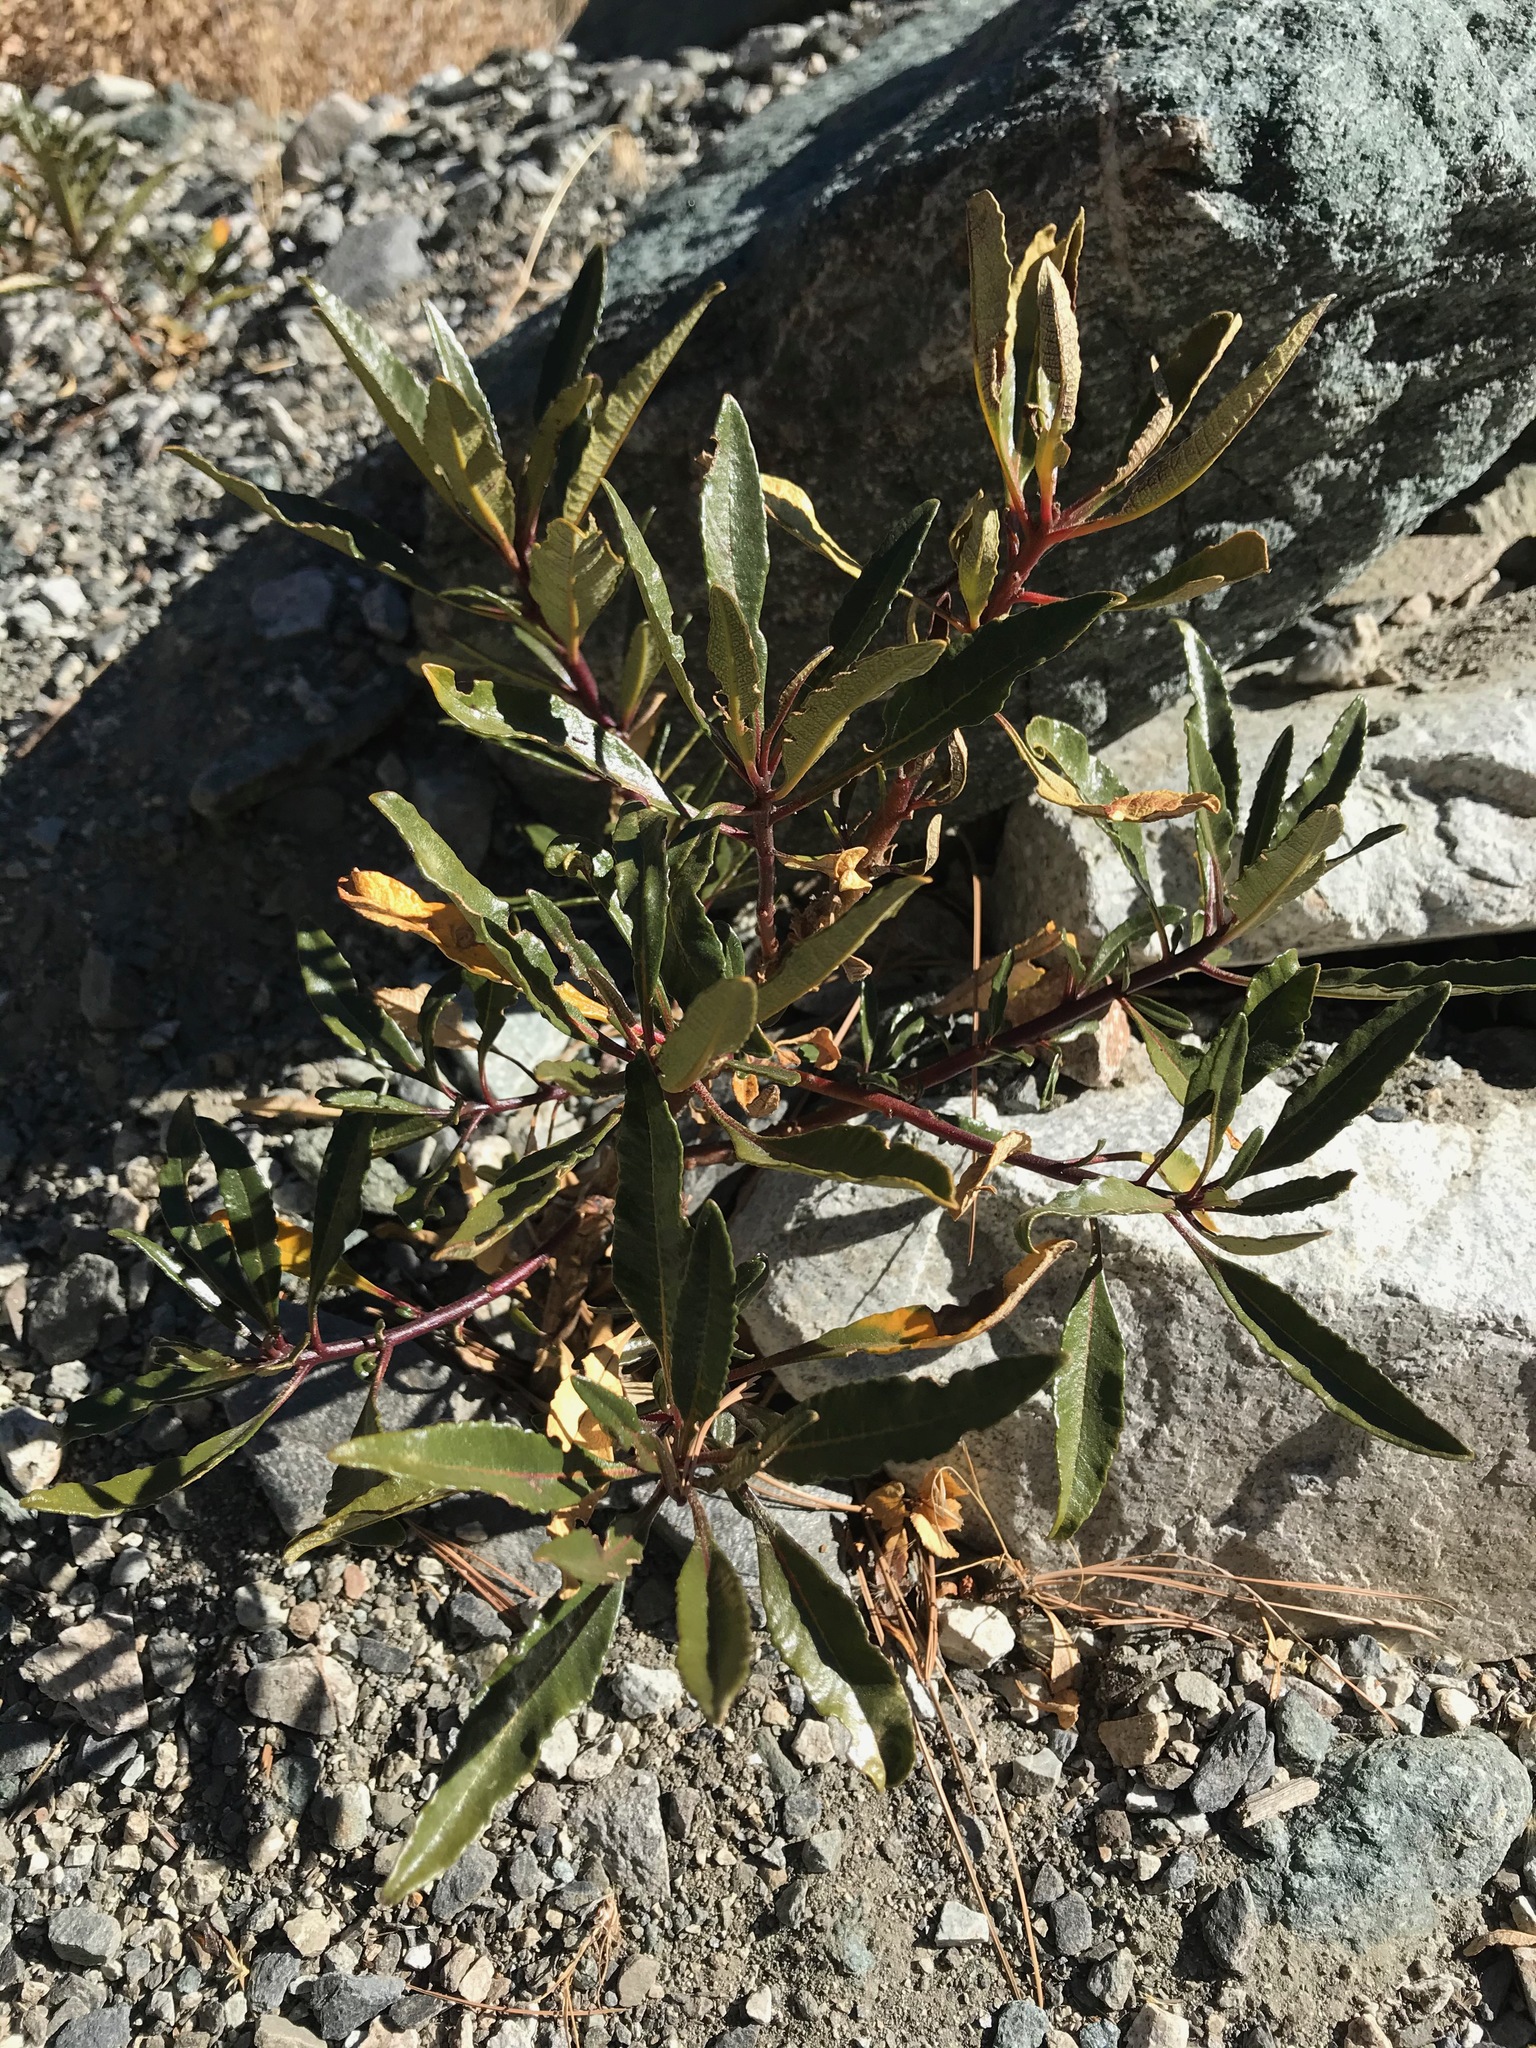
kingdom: Plantae
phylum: Tracheophyta
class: Magnoliopsida
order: Boraginales
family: Namaceae
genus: Eriodictyon
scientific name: Eriodictyon trichocalyx
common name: Hairy yerba-santa
